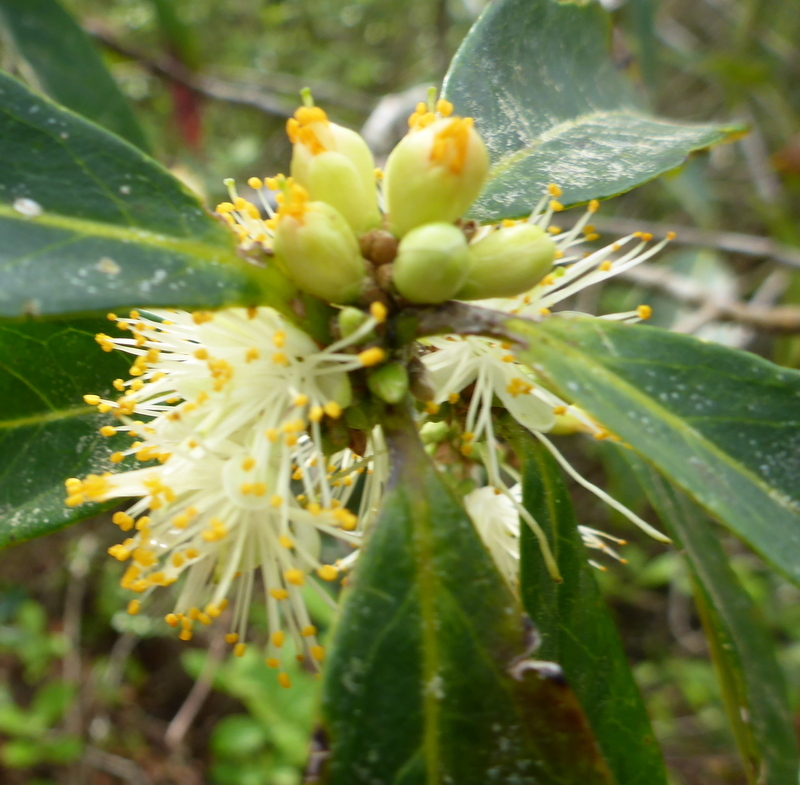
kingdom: Plantae
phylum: Tracheophyta
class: Magnoliopsida
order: Ericales
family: Symplocaceae
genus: Symplocos
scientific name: Symplocos tinctoria
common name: Horse-sugar
